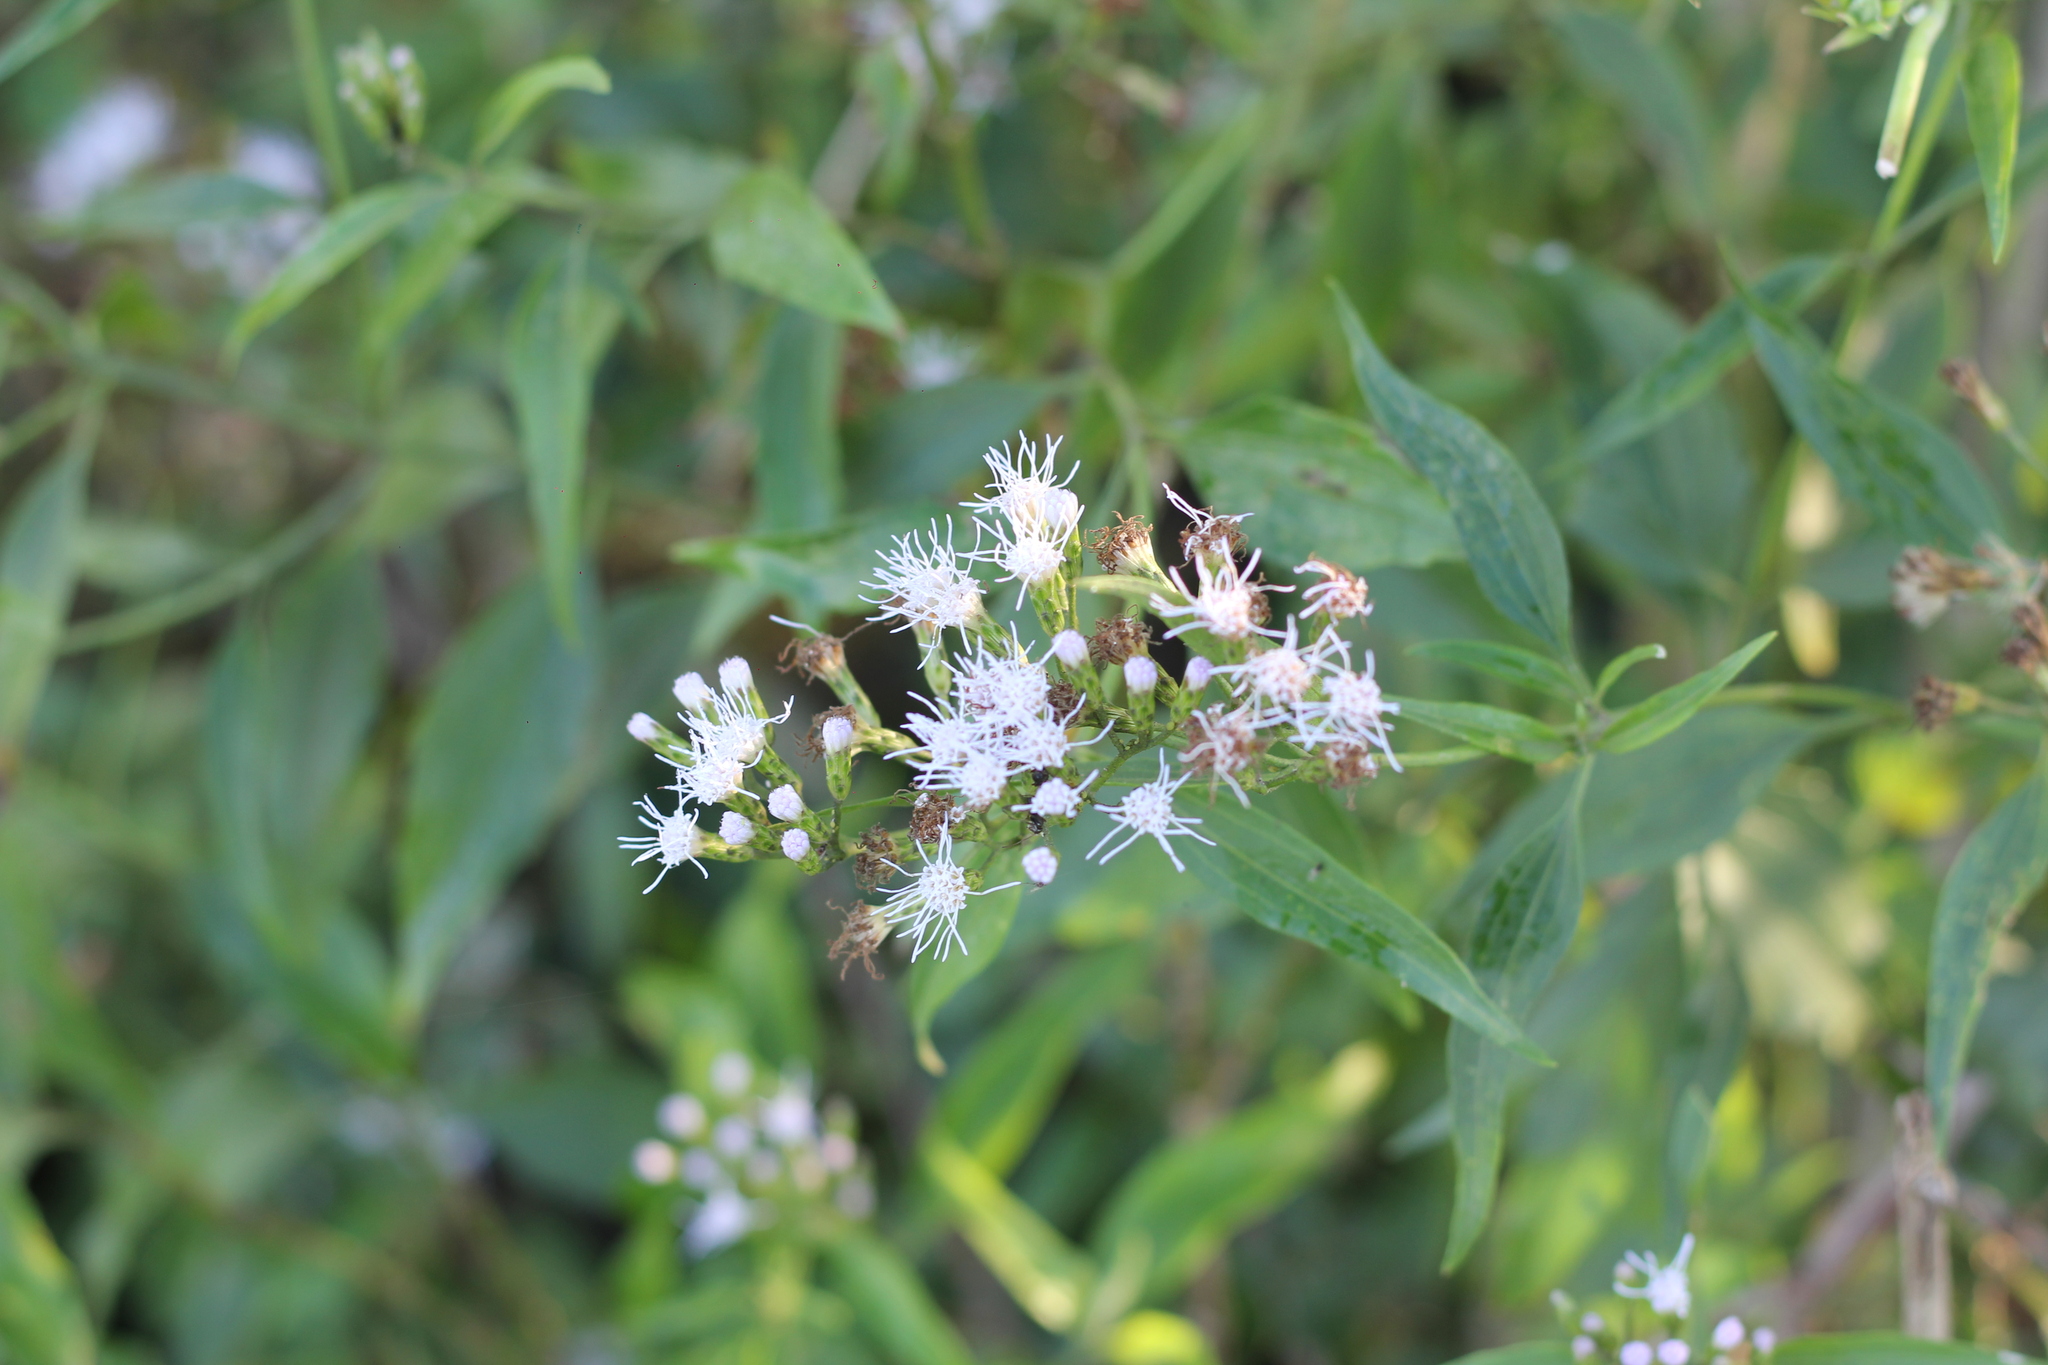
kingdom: Plantae
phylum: Tracheophyta
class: Magnoliopsida
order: Asterales
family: Asteraceae
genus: Chromolaena
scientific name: Chromolaena christieana
